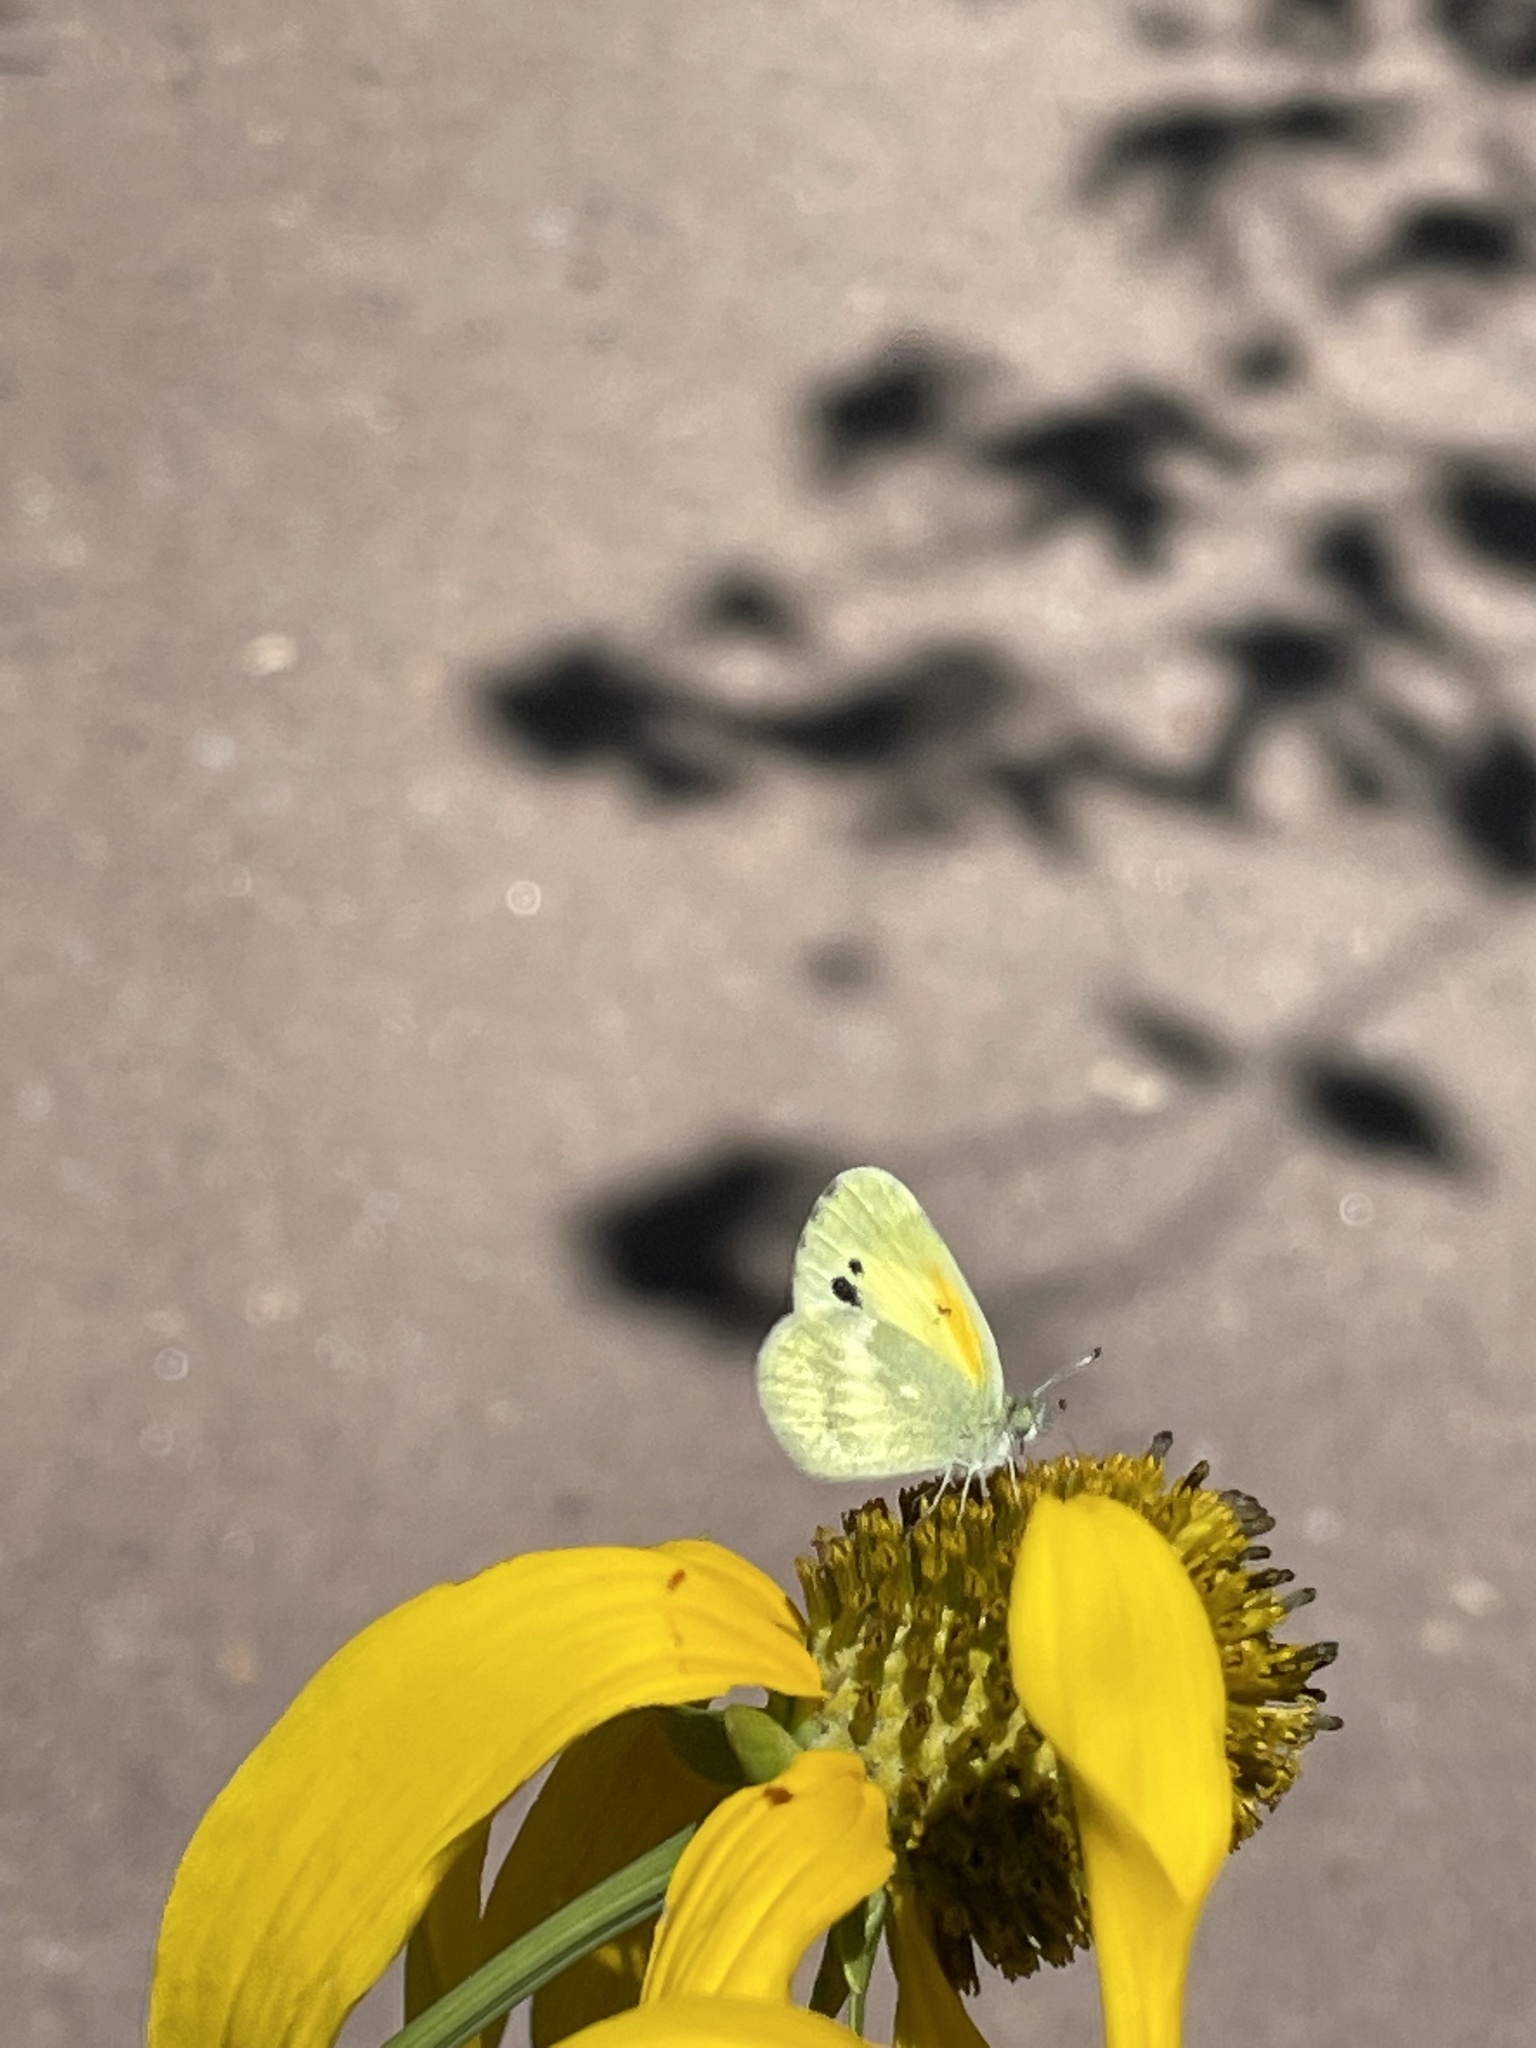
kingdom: Animalia
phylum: Arthropoda
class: Insecta
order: Lepidoptera
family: Pieridae
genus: Nathalis
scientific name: Nathalis iole
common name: Dainty sulphur
